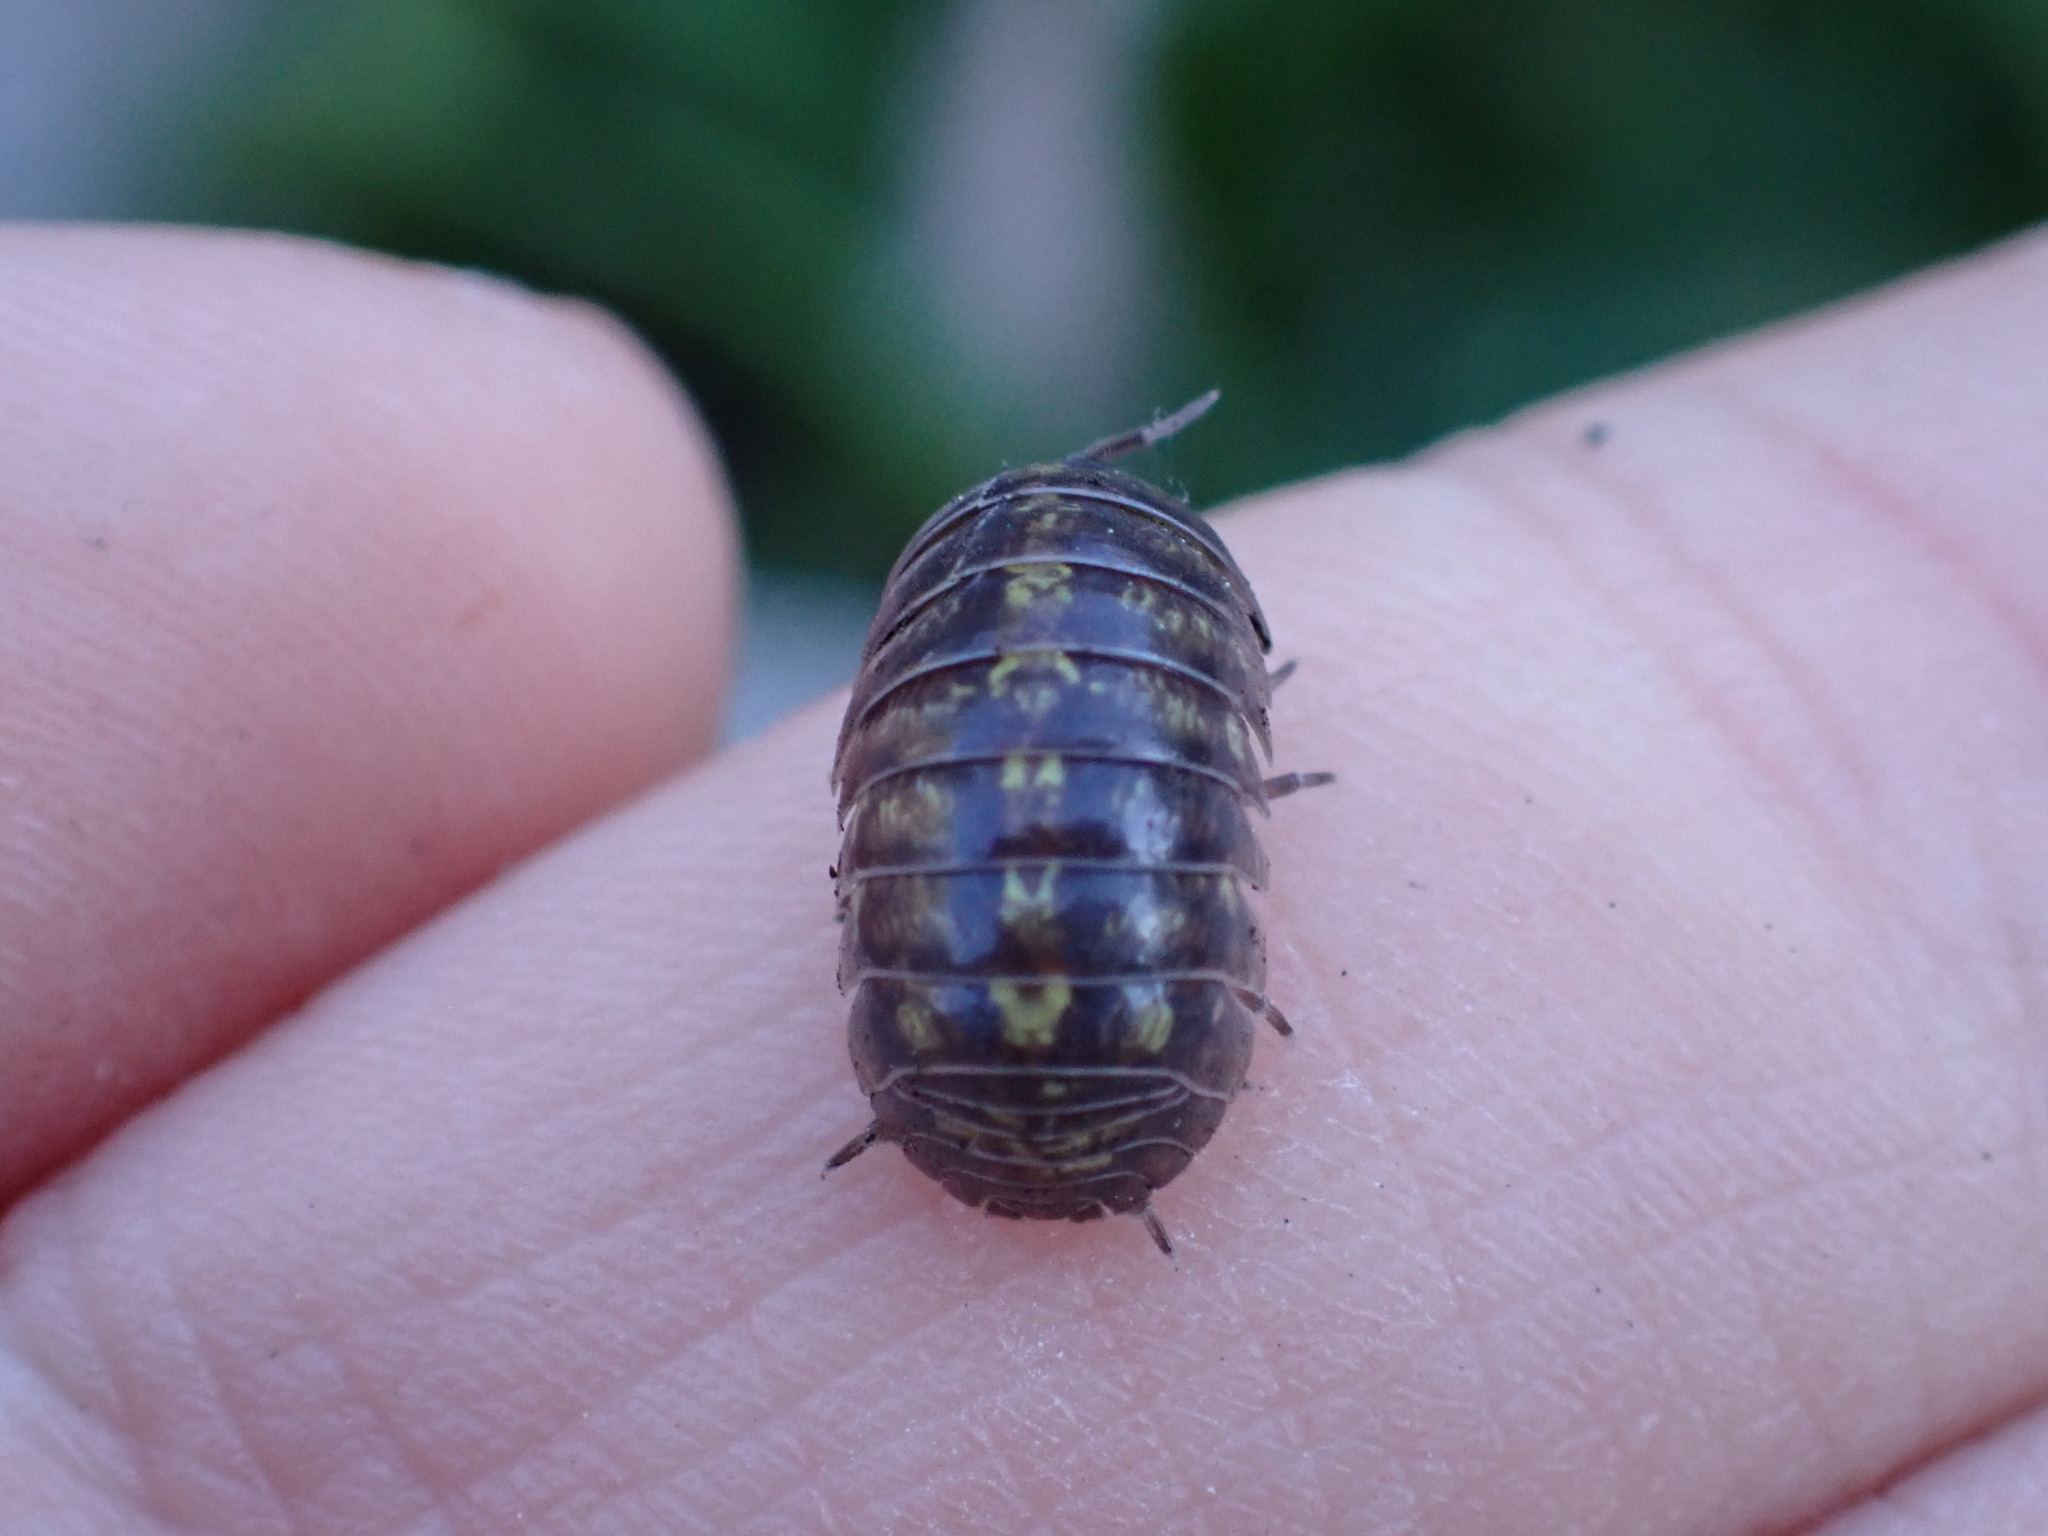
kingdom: Animalia
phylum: Arthropoda
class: Malacostraca
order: Isopoda
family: Armadillidiidae
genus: Armadillidium
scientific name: Armadillidium vulgare
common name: Common pill woodlouse
